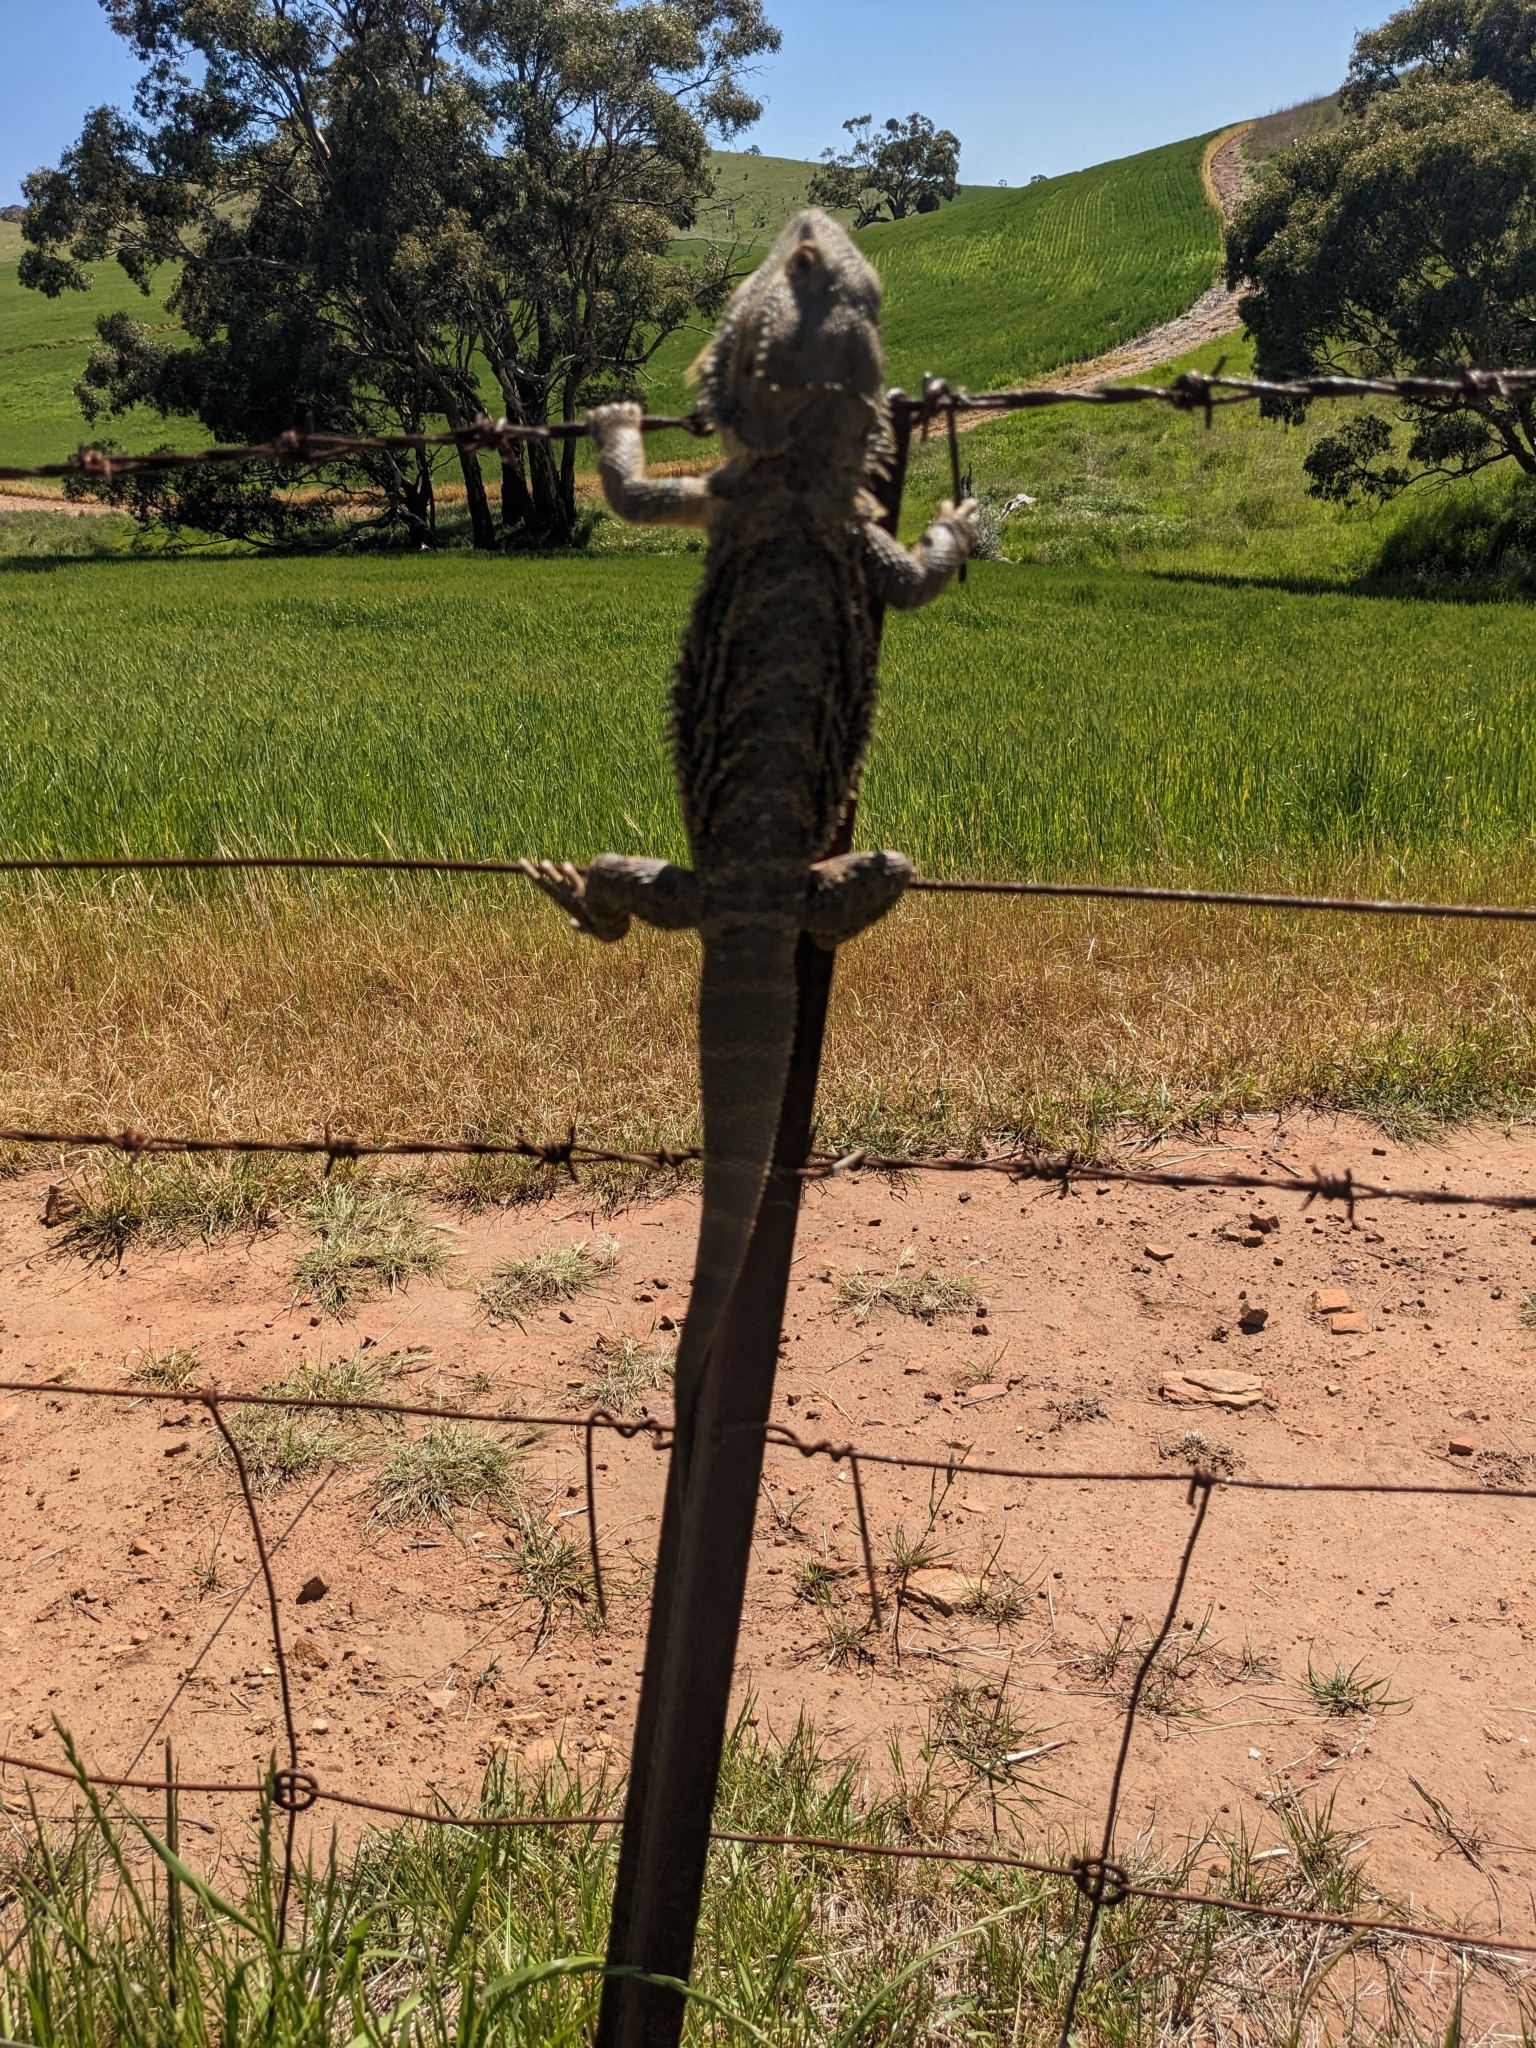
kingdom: Animalia
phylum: Chordata
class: Squamata
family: Agamidae
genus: Pogona
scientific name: Pogona vitticeps
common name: Central bearded dragon
